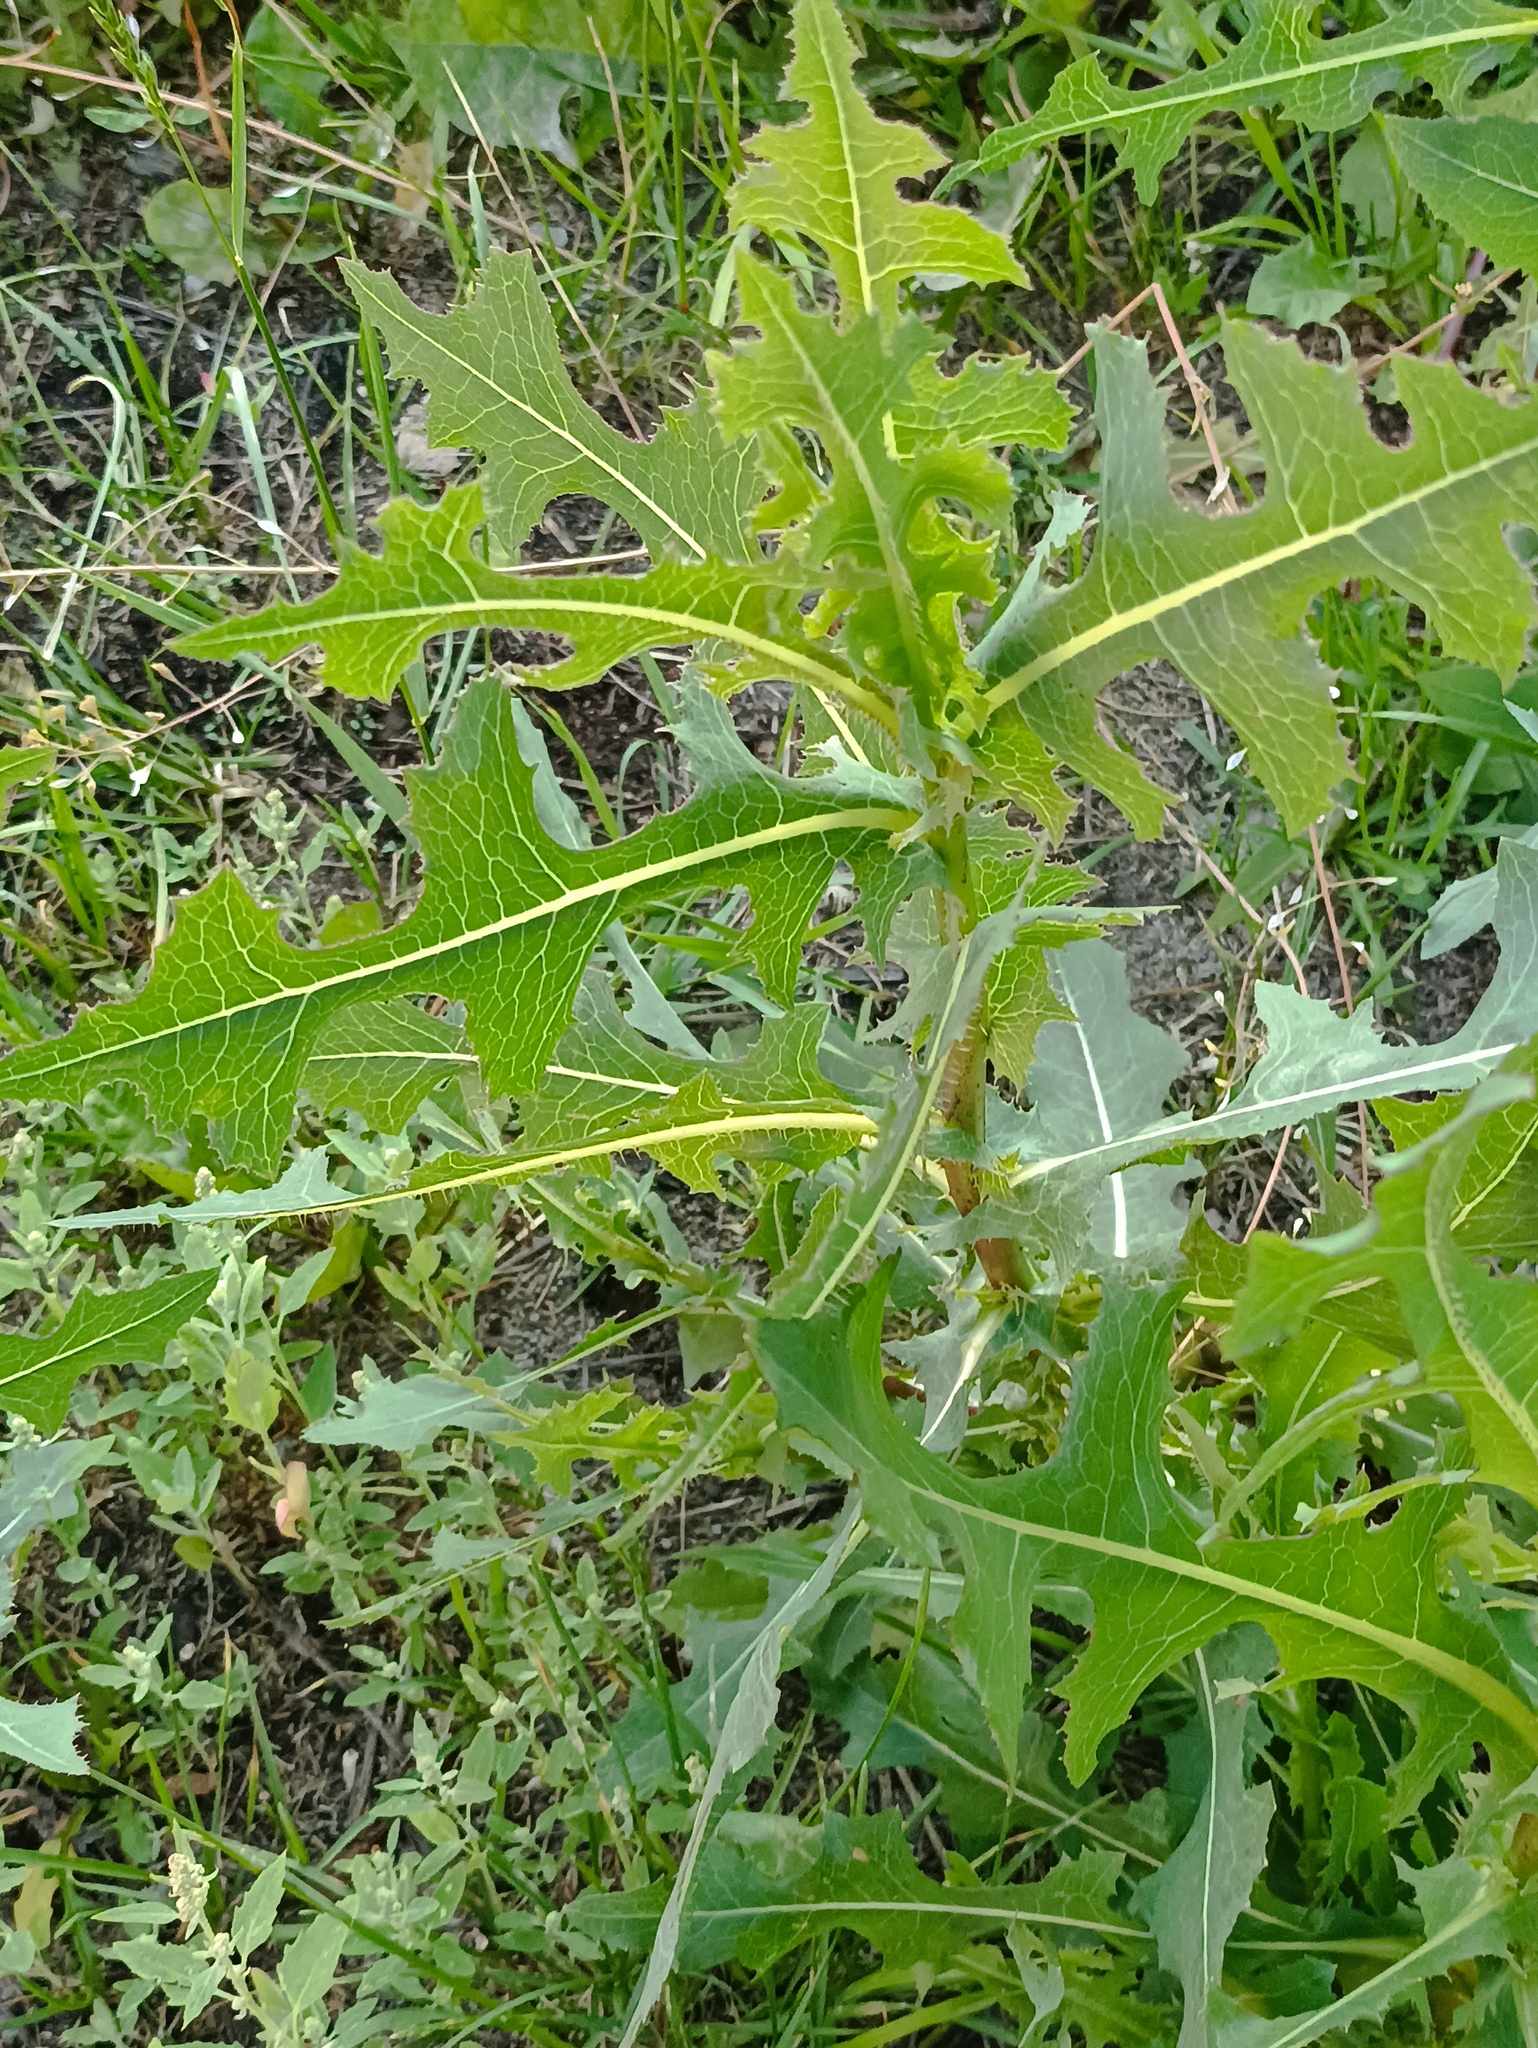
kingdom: Plantae
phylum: Tracheophyta
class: Magnoliopsida
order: Asterales
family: Asteraceae
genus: Lactuca
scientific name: Lactuca serriola
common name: Prickly lettuce
